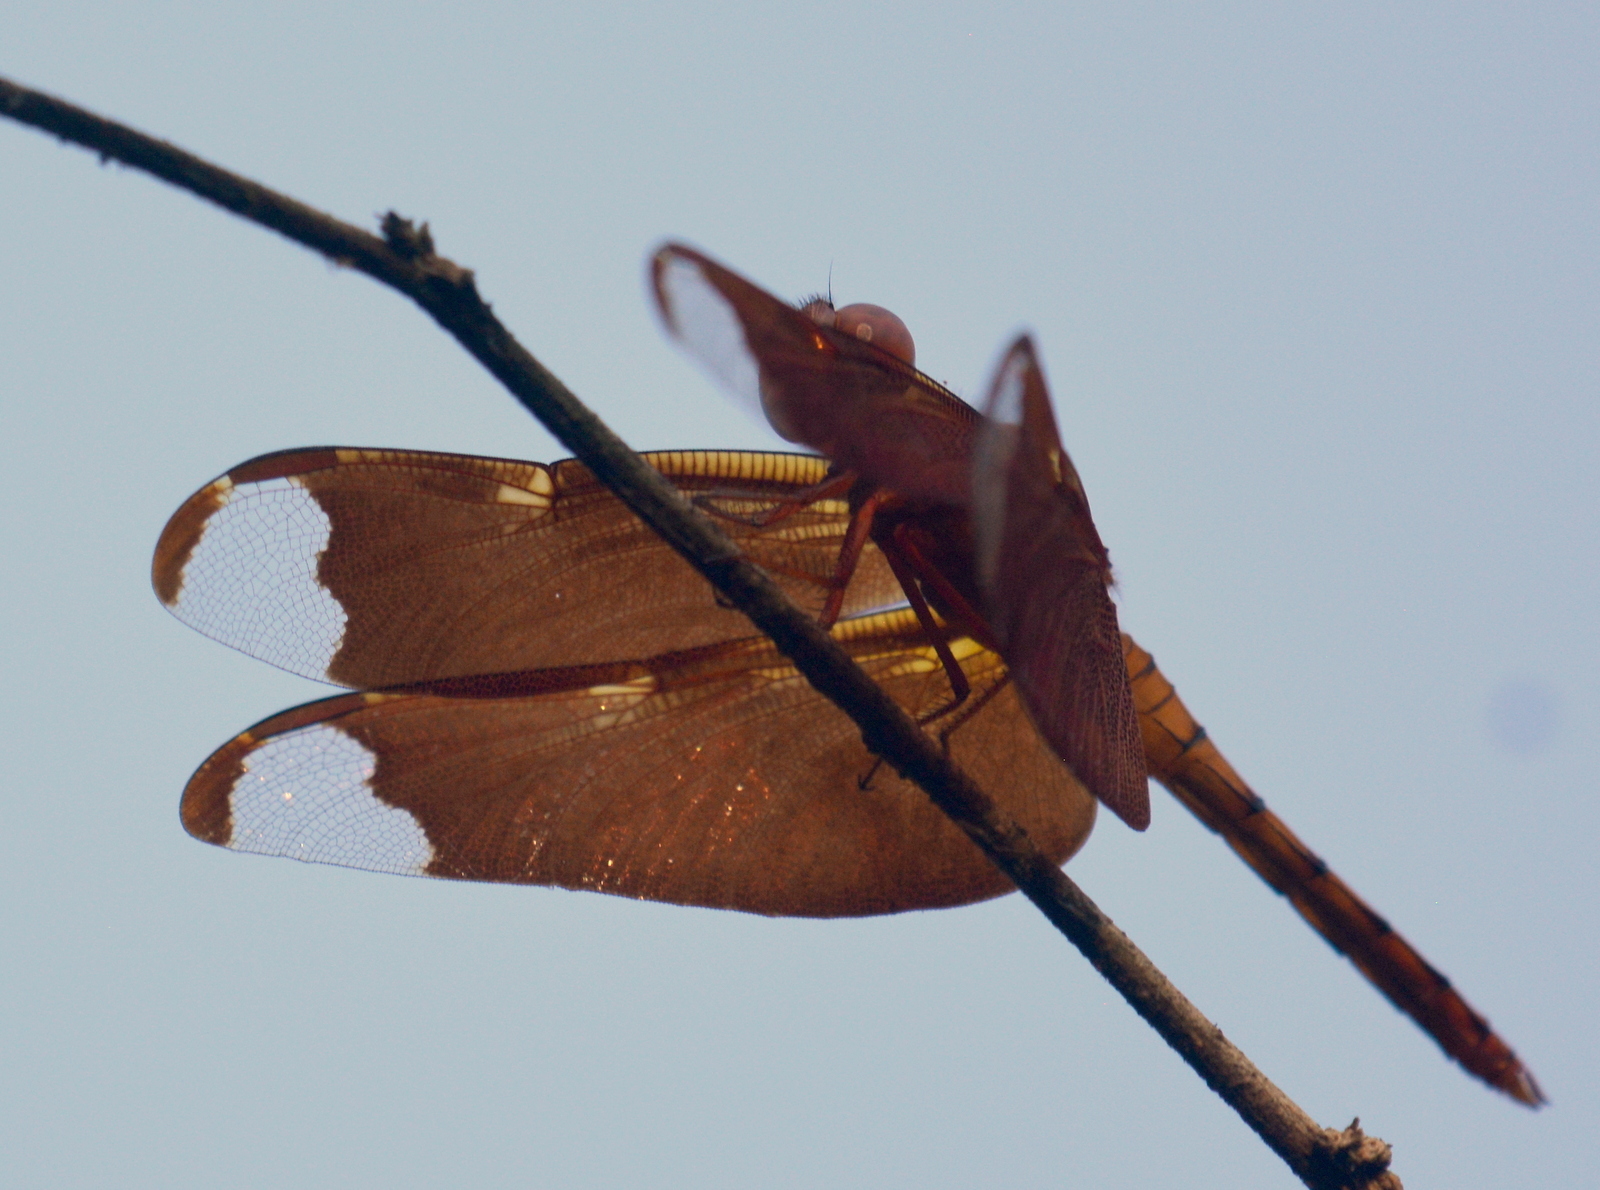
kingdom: Animalia
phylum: Arthropoda
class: Insecta
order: Odonata
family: Libellulidae
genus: Neurothemis
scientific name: Neurothemis fulvia
